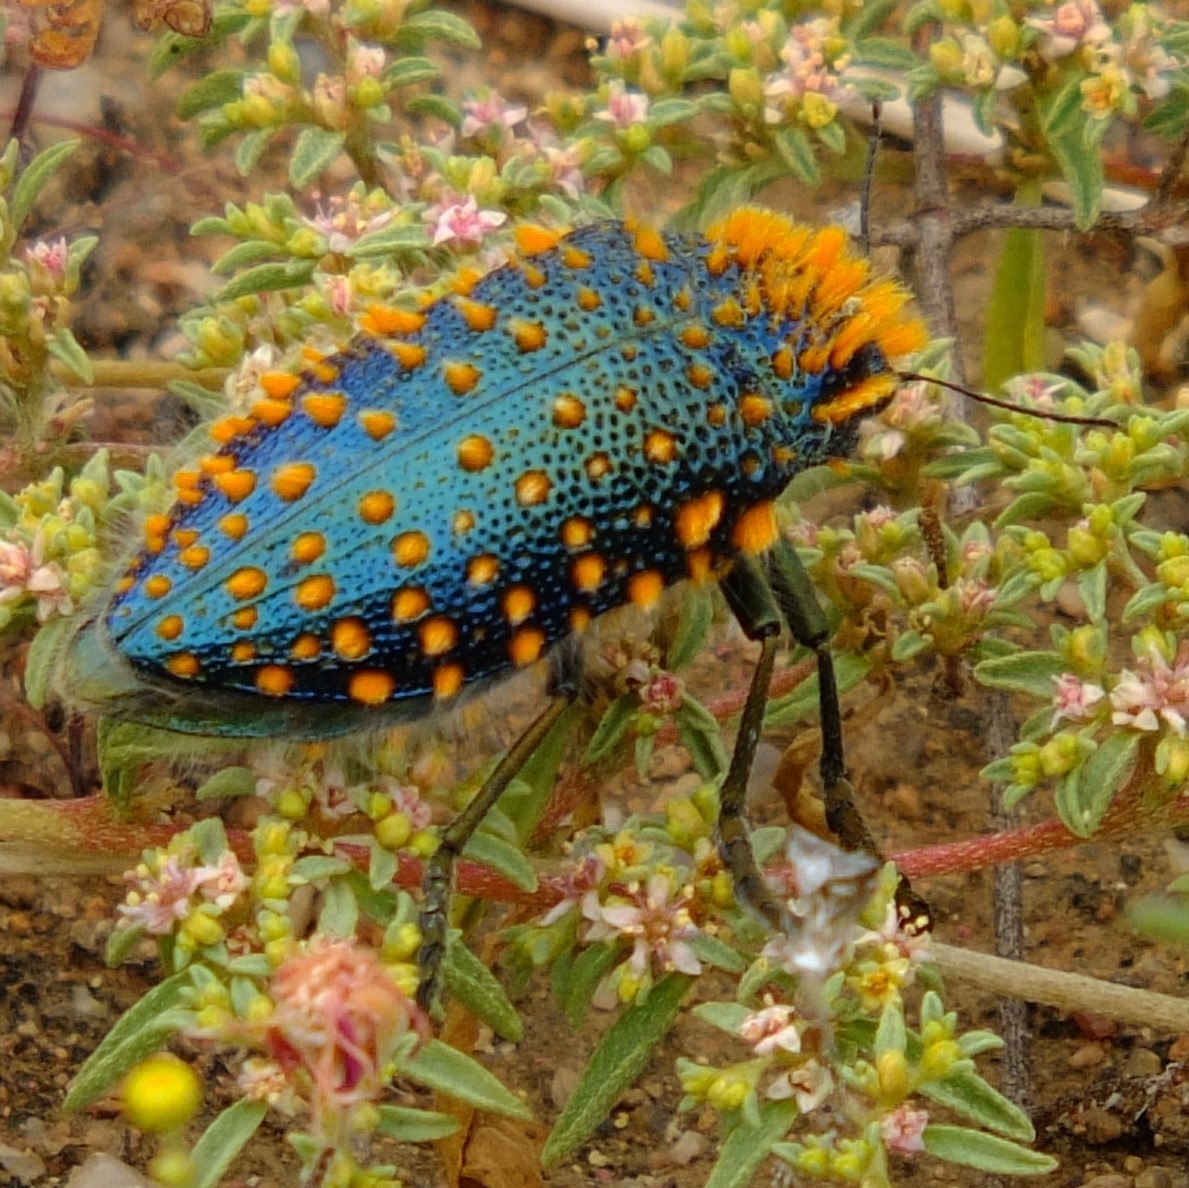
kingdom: Animalia
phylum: Arthropoda
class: Insecta
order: Coleoptera
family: Buprestidae
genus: Julodis
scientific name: Julodis viridipes
